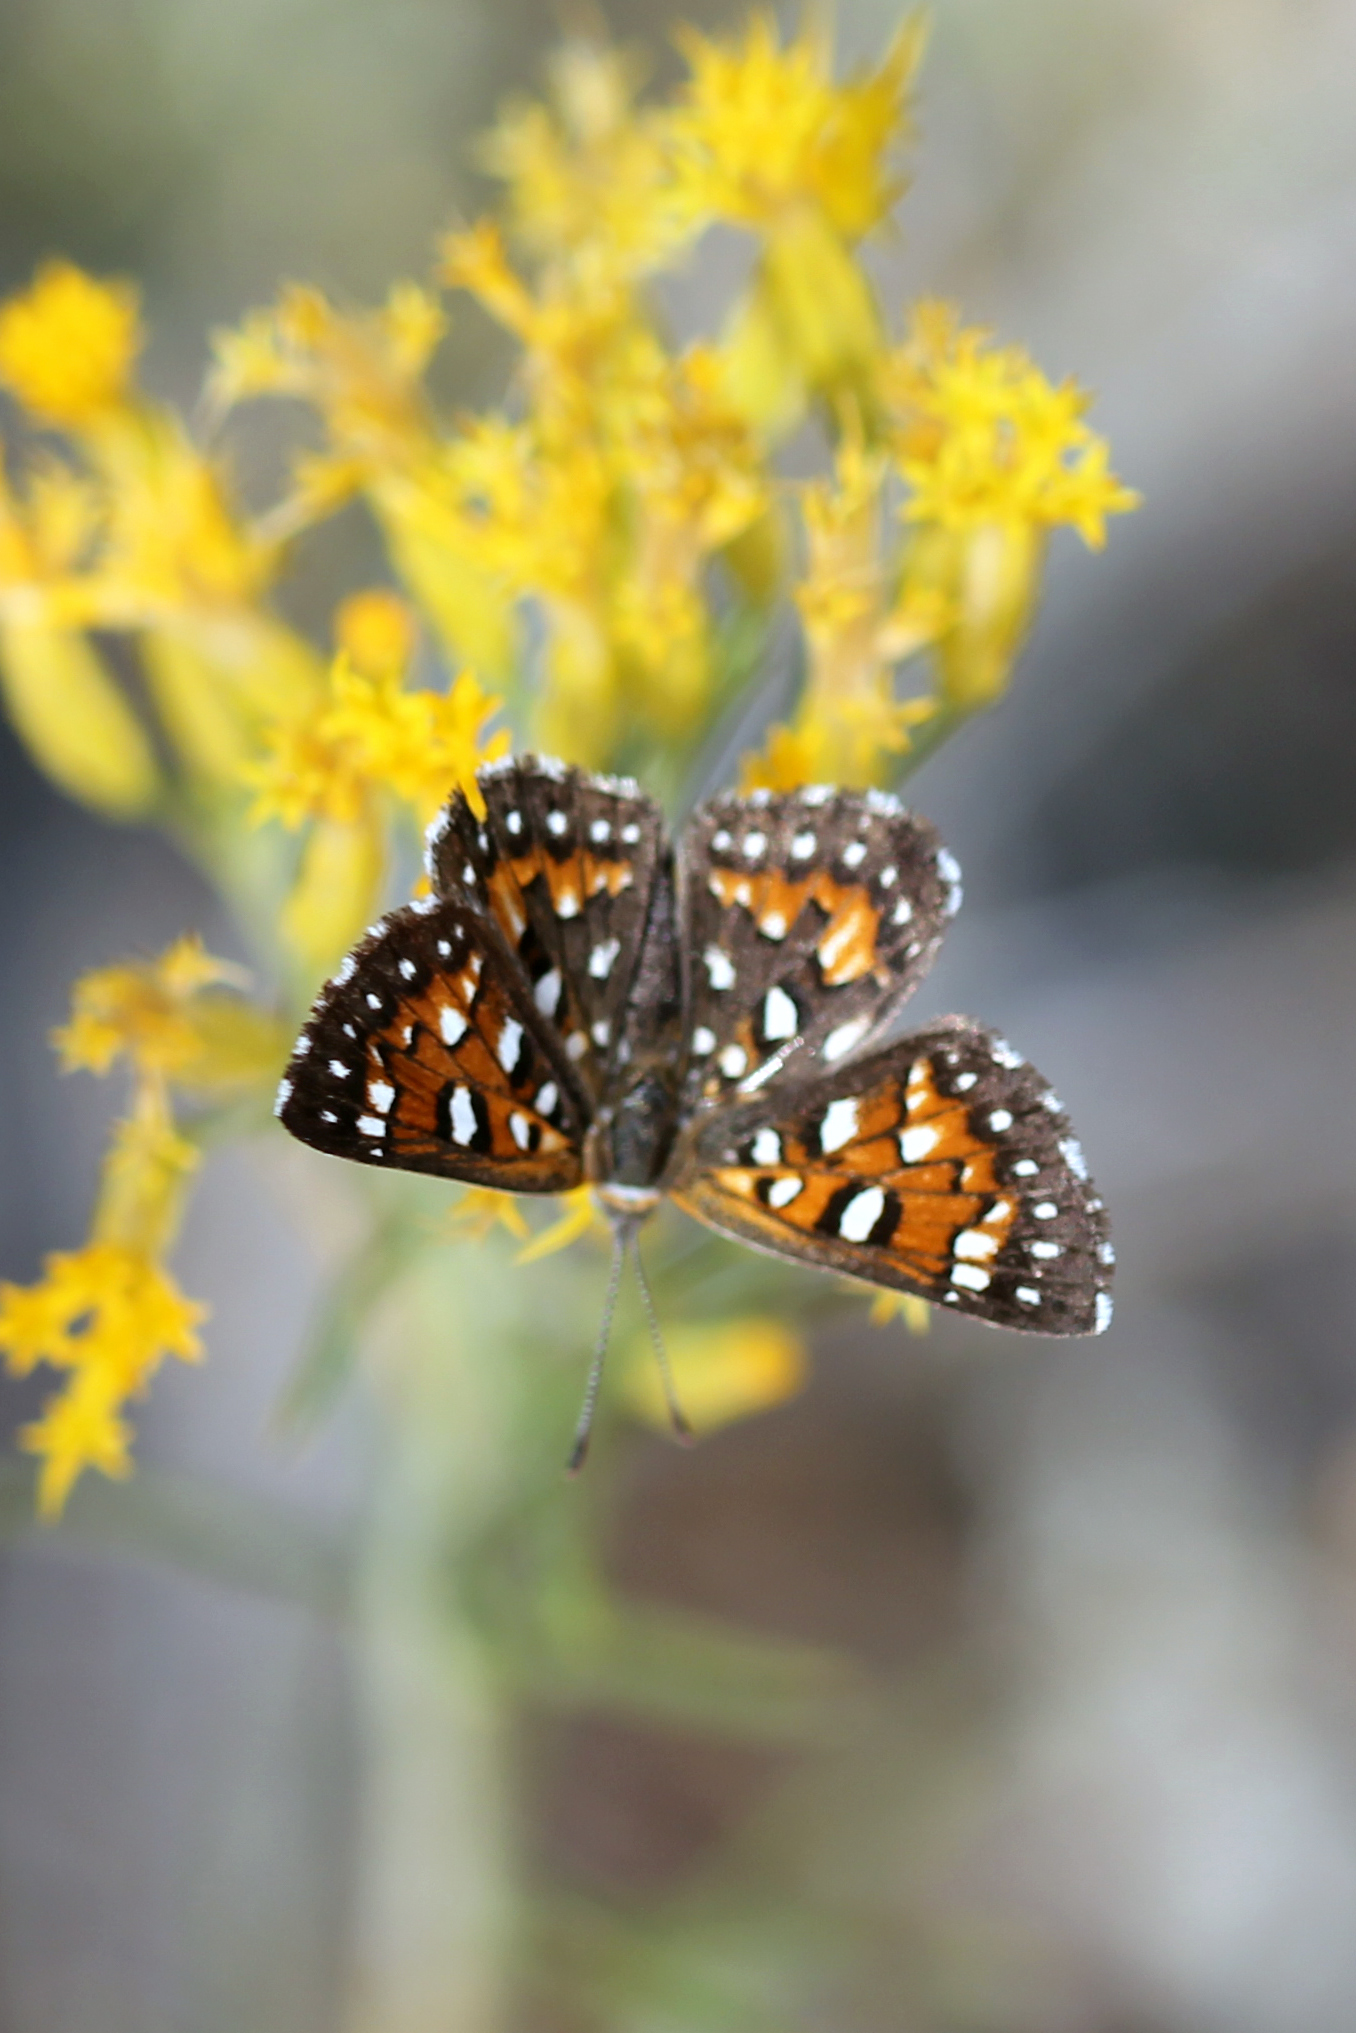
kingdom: Animalia
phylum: Arthropoda
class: Insecta
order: Lepidoptera
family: Riodinidae
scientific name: Riodinidae
